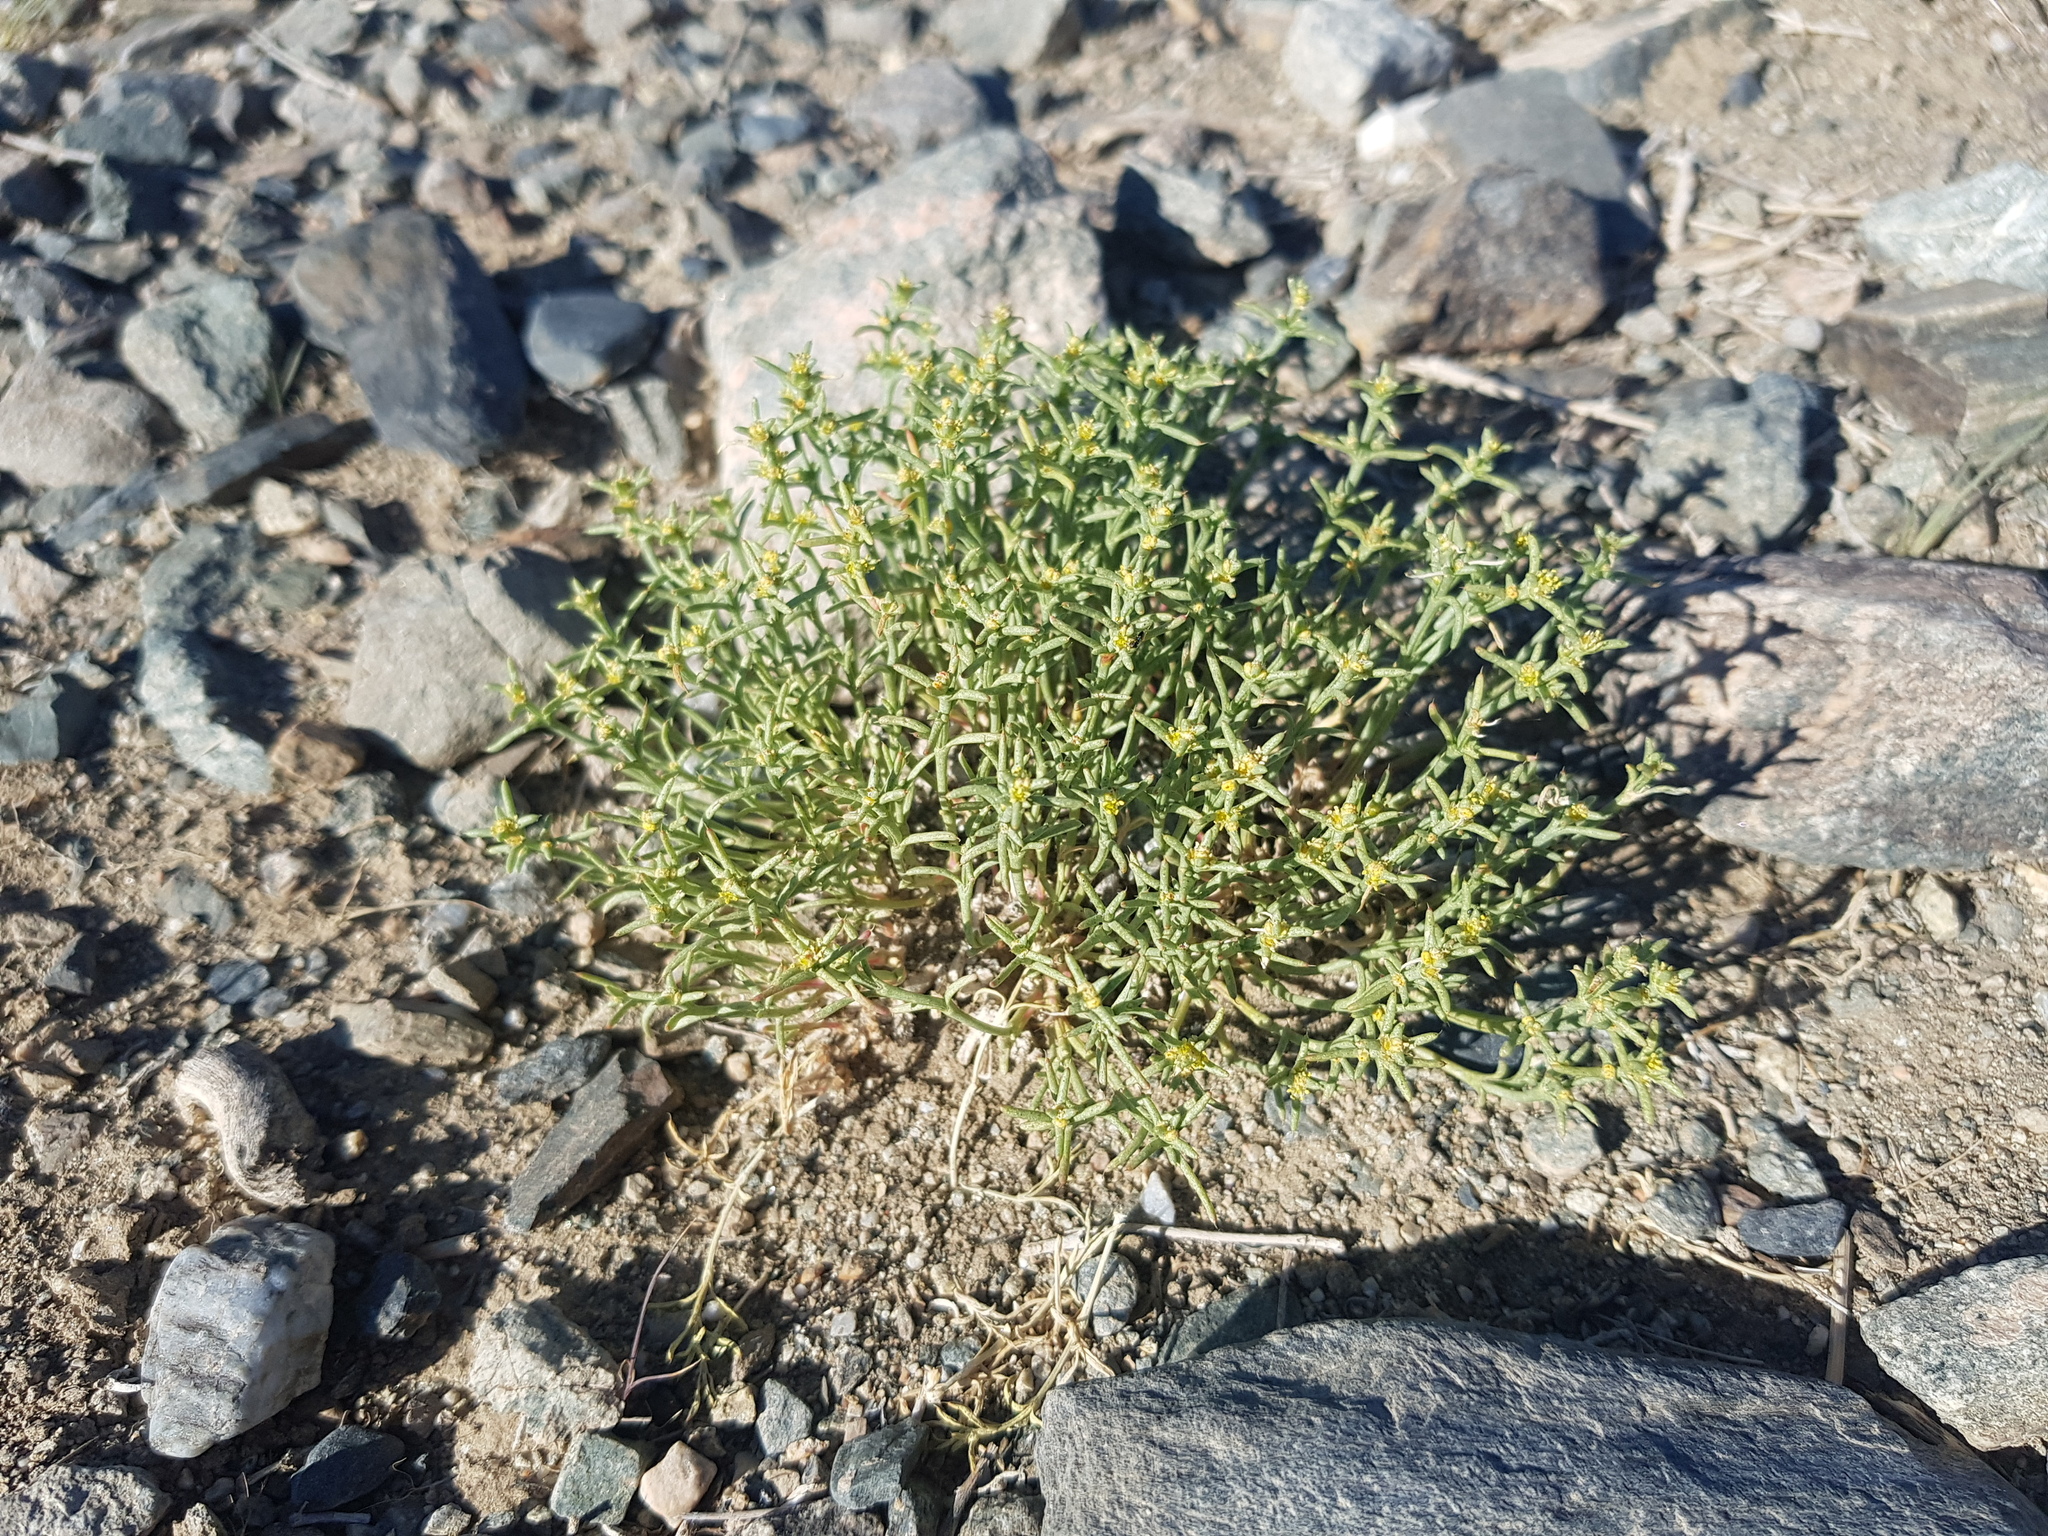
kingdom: Plantae
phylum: Tracheophyta
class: Magnoliopsida
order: Caryophyllales
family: Amaranthaceae
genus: Anabasis
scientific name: Anabasis brevifolia
